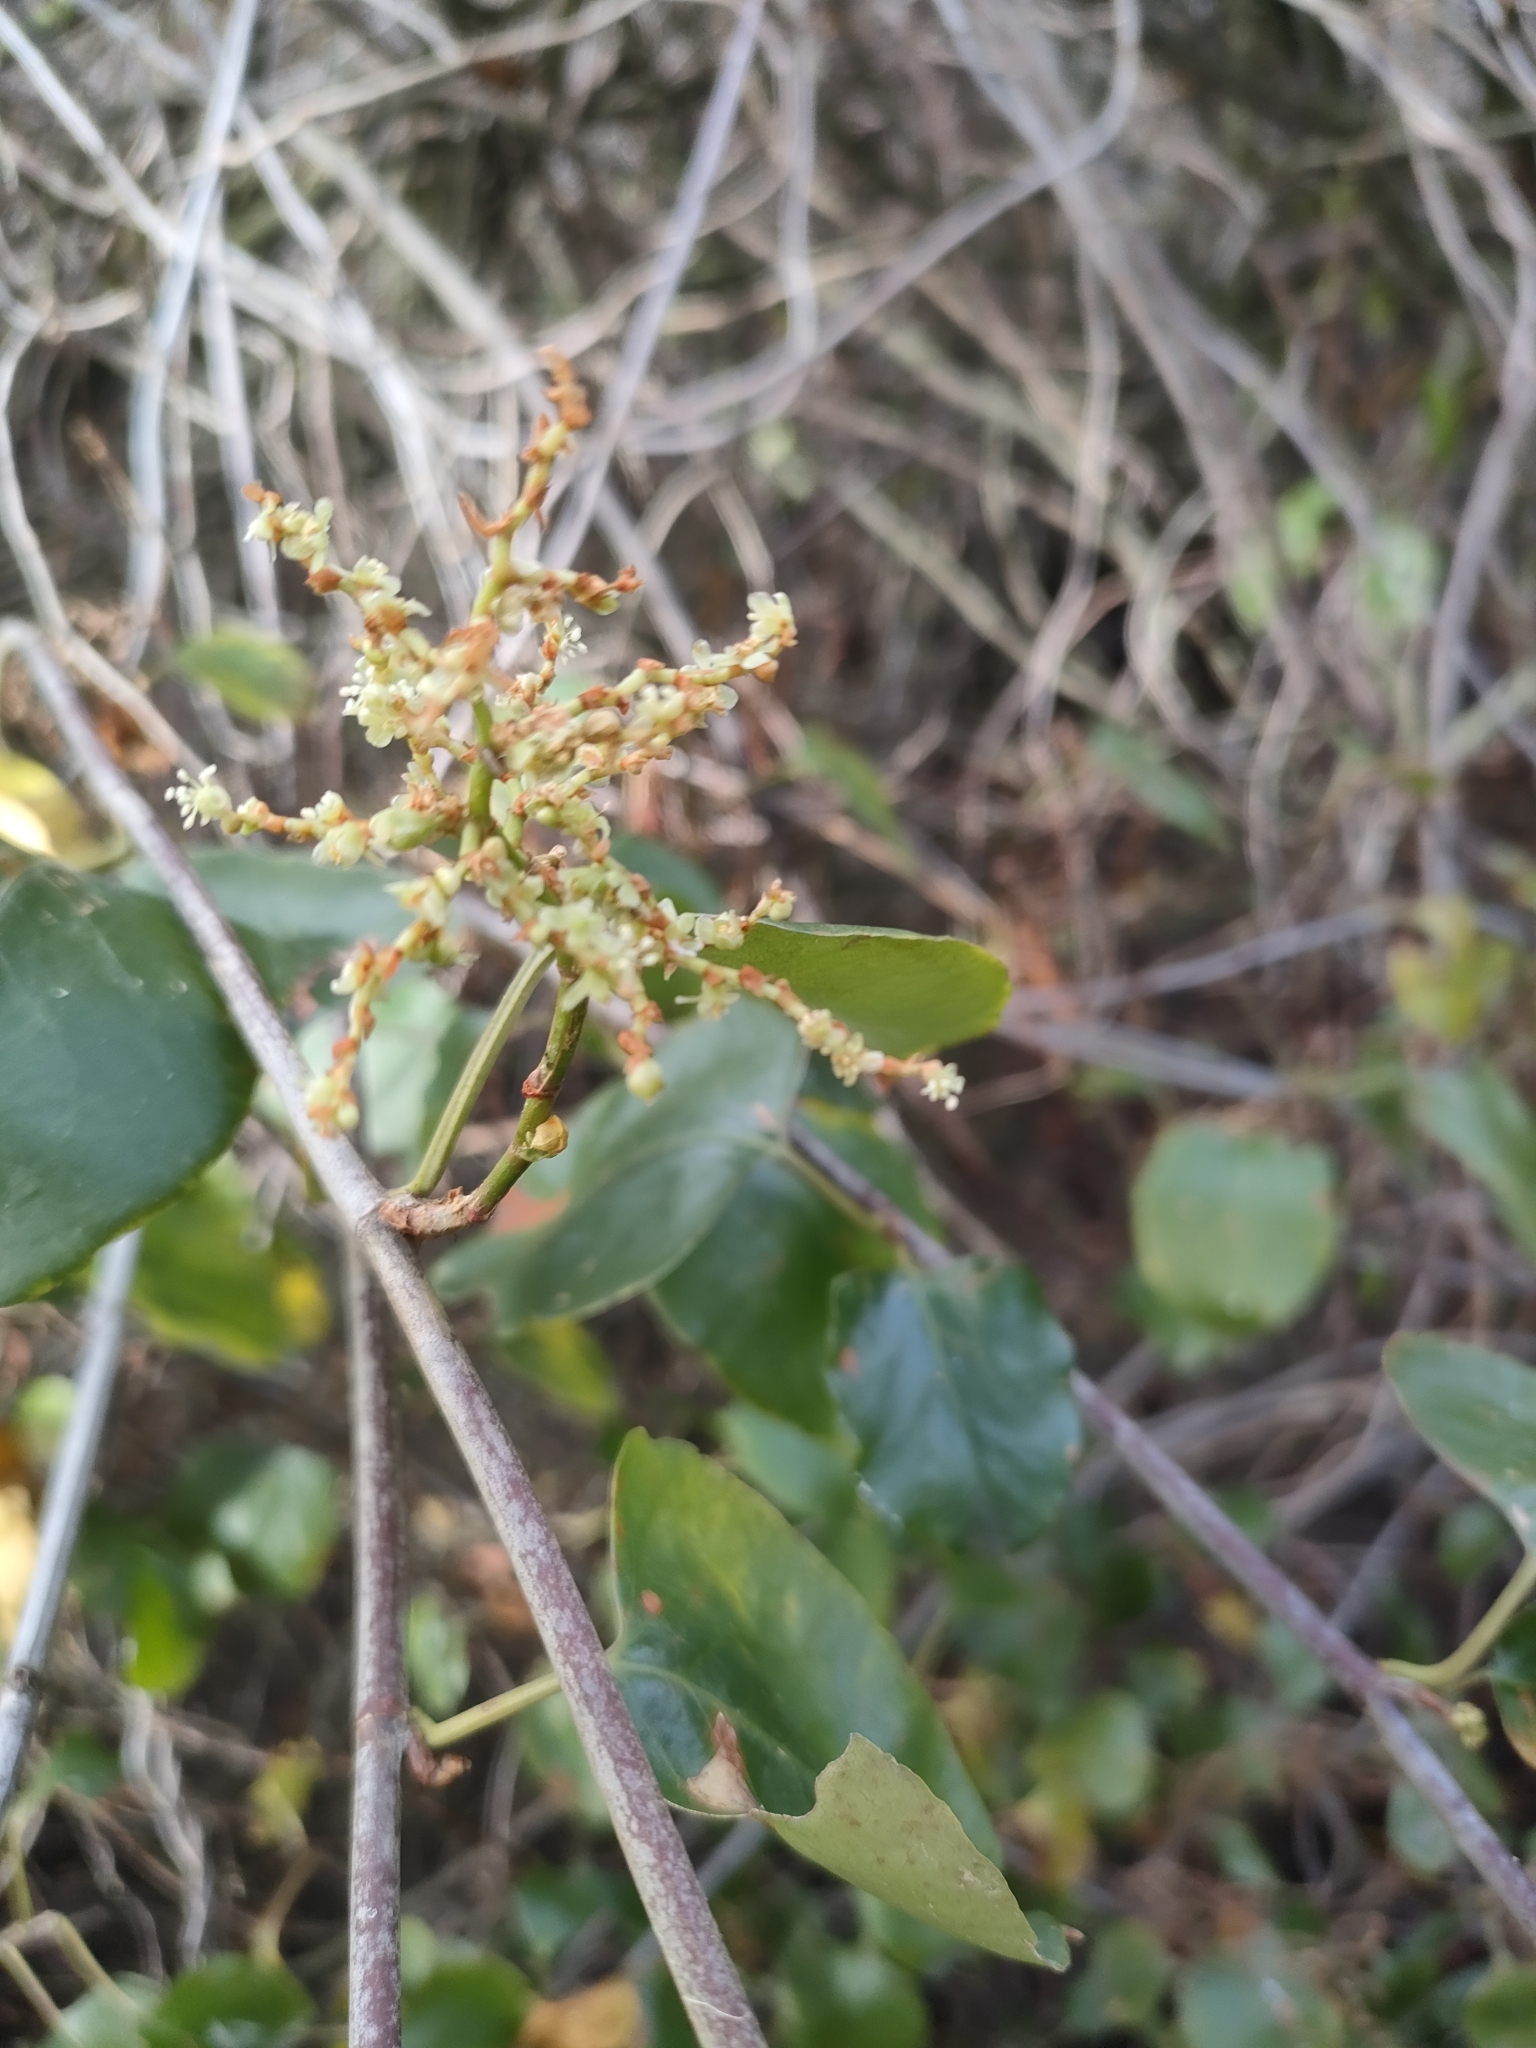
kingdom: Plantae
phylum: Tracheophyta
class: Magnoliopsida
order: Caryophyllales
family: Polygonaceae
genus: Muehlenbeckia
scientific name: Muehlenbeckia australis
